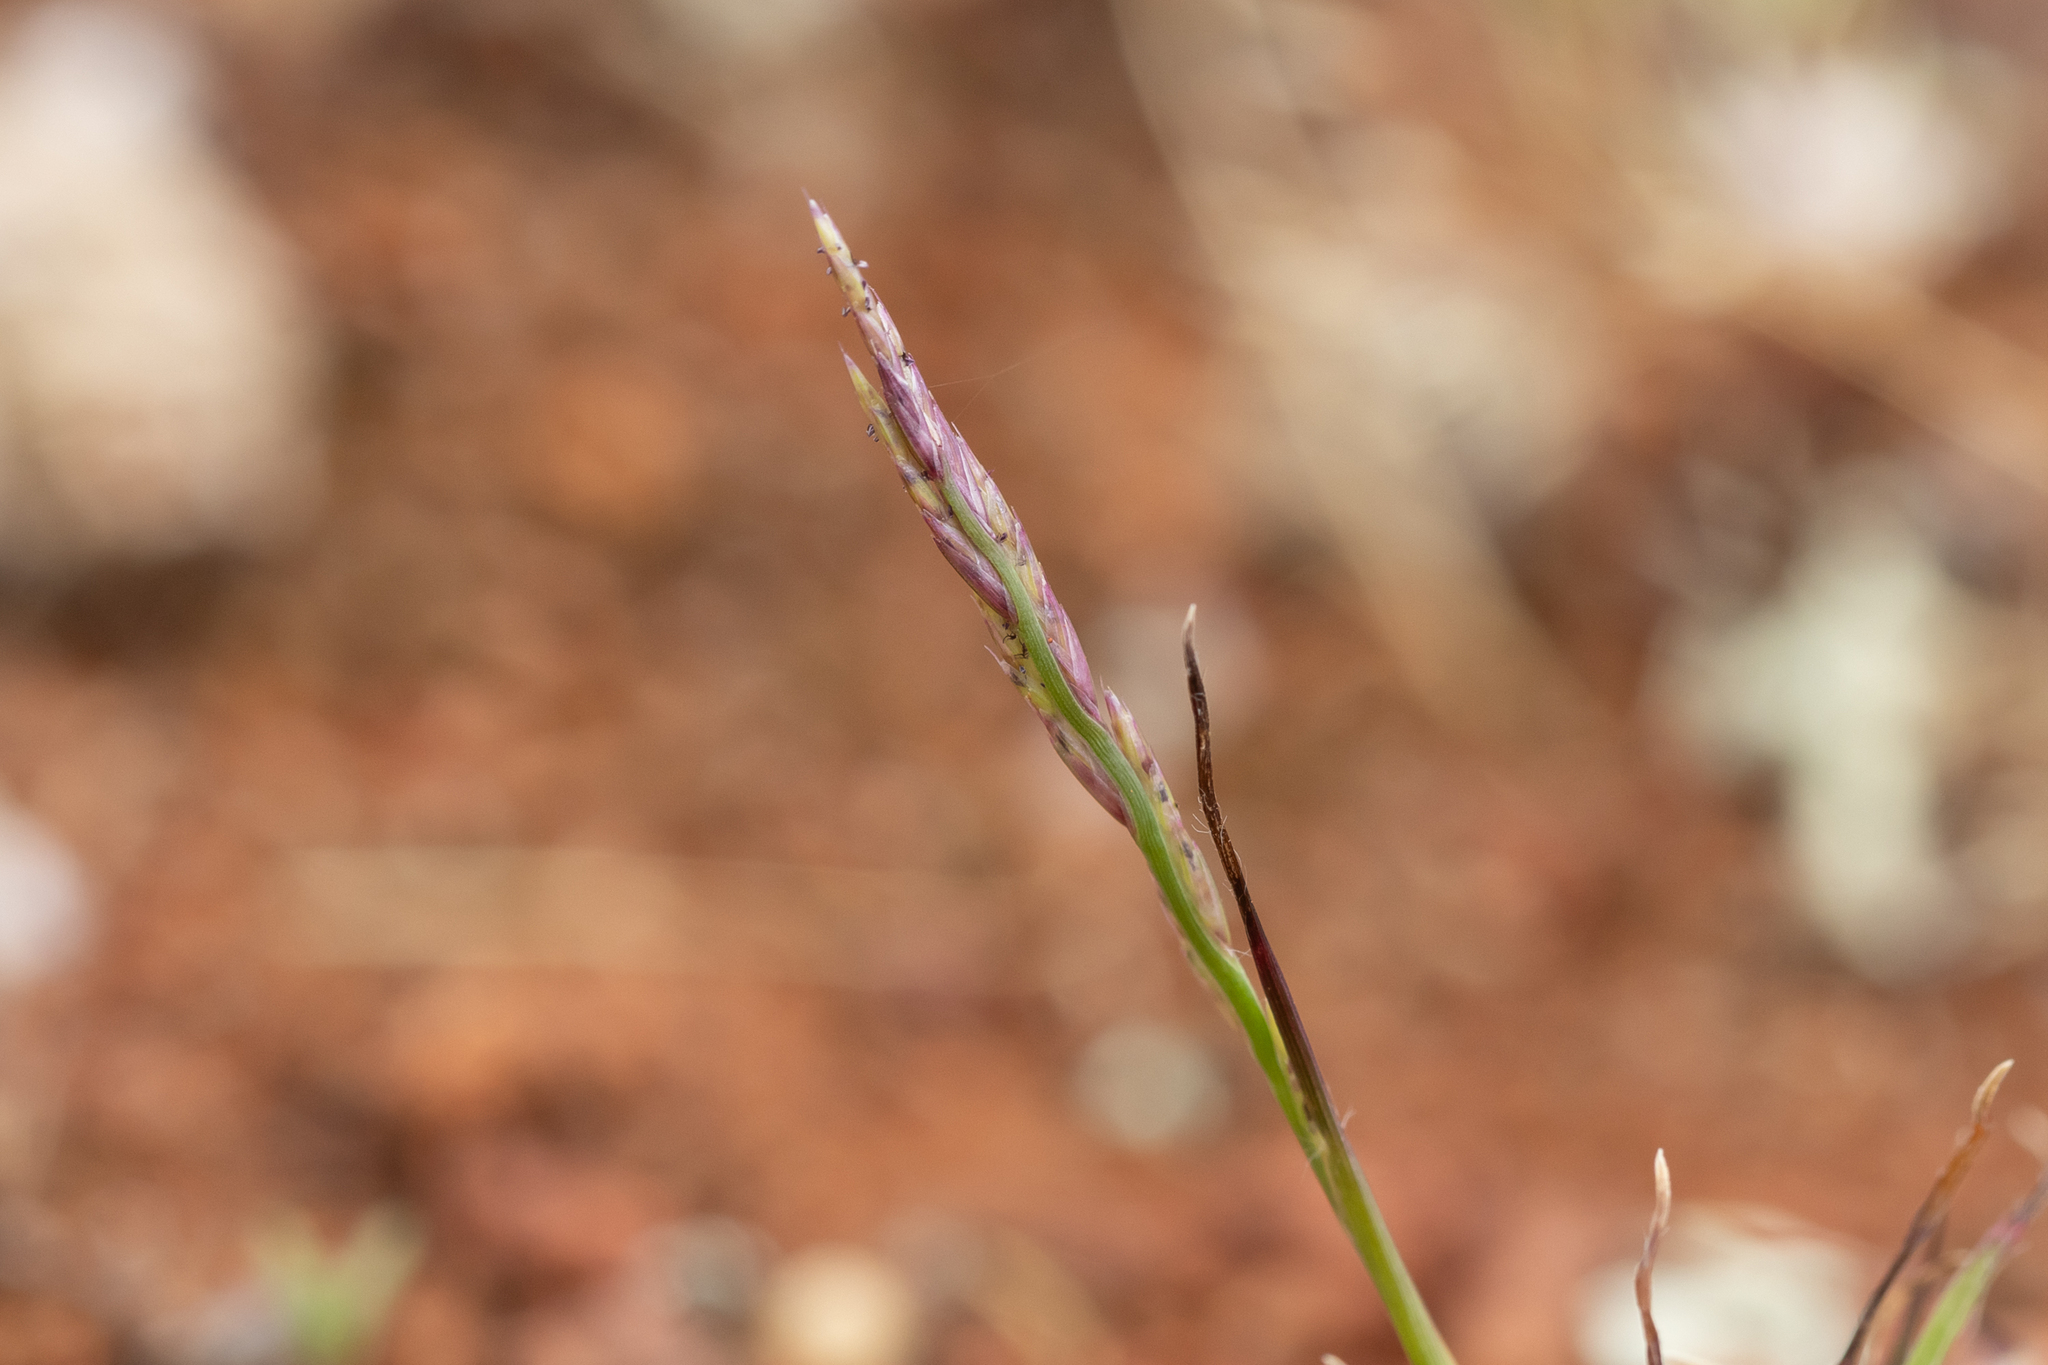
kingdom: Plantae
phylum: Tracheophyta
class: Liliopsida
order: Poales
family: Poaceae
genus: Tripogonella
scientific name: Tripogonella loliiformis
